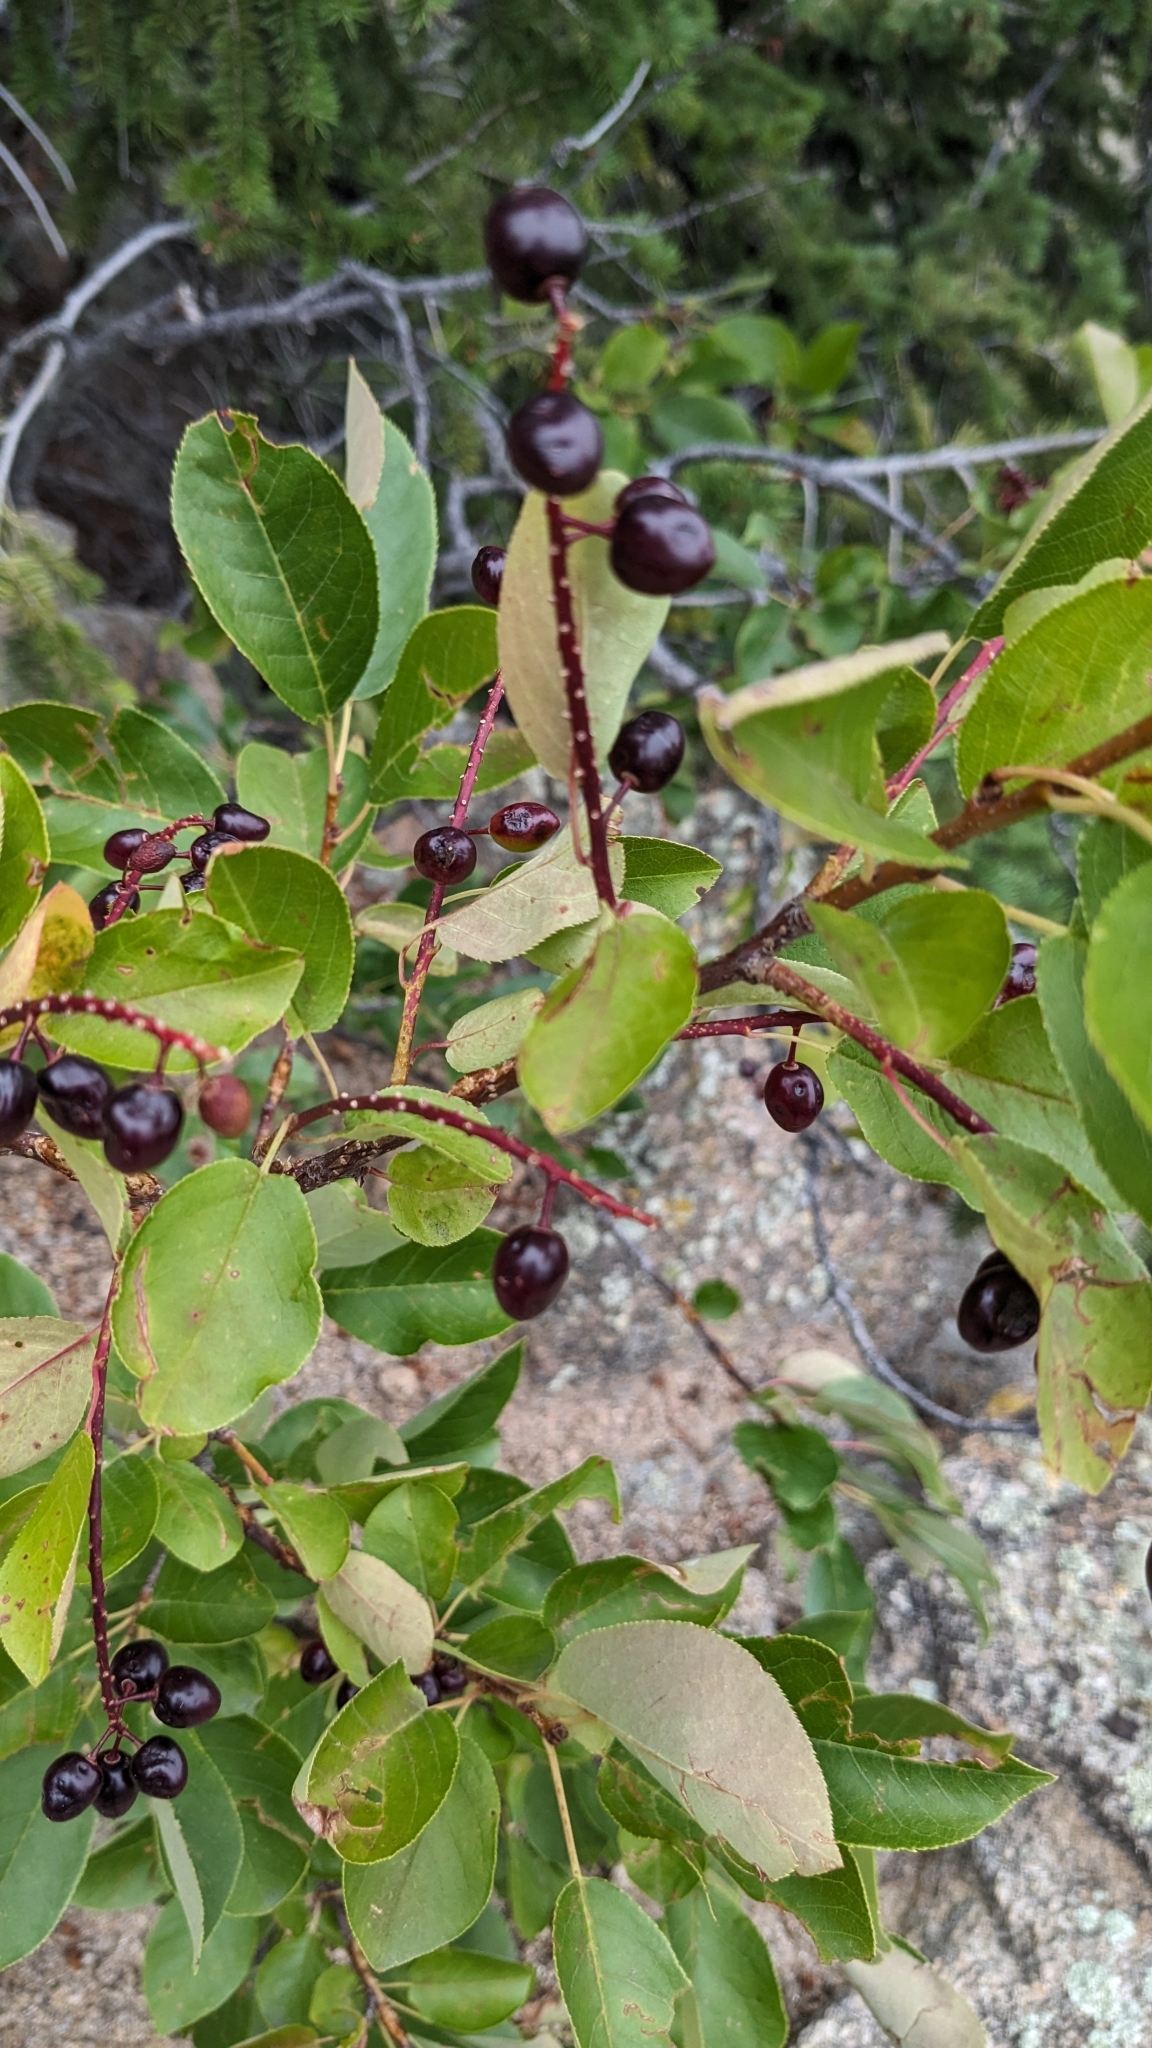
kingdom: Plantae
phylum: Tracheophyta
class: Magnoliopsida
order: Rosales
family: Rosaceae
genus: Prunus
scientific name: Prunus virginiana
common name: Chokecherry
